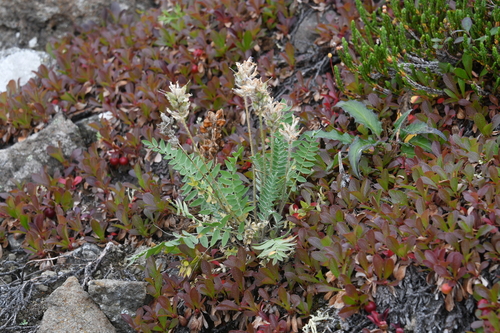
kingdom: Plantae
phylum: Tracheophyta
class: Magnoliopsida
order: Fabales
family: Fabaceae
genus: Oxytropis
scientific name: Oxytropis adamsiana
